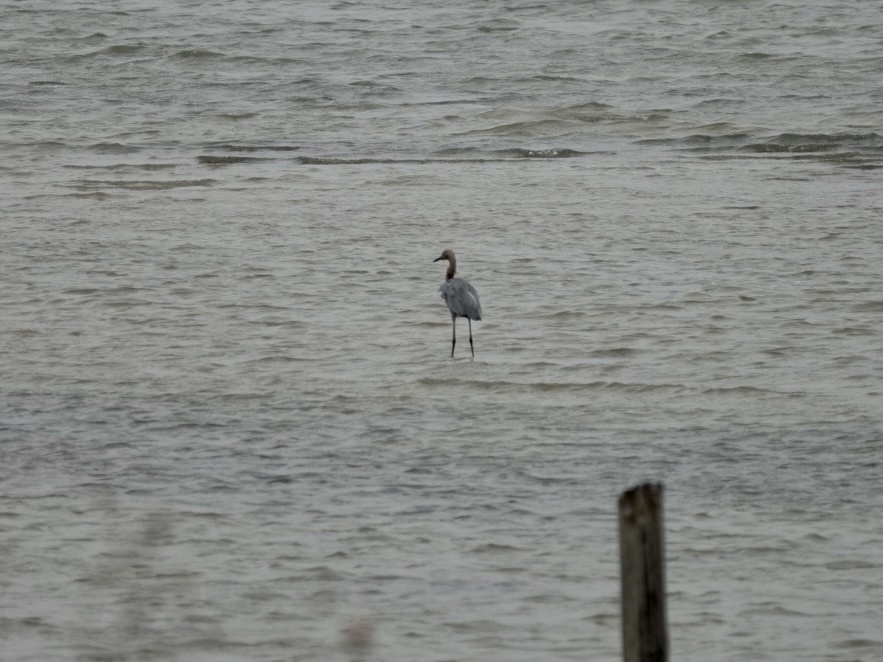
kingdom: Animalia
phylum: Chordata
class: Aves
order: Pelecaniformes
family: Ardeidae
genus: Egretta
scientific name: Egretta rufescens
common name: Reddish egret
